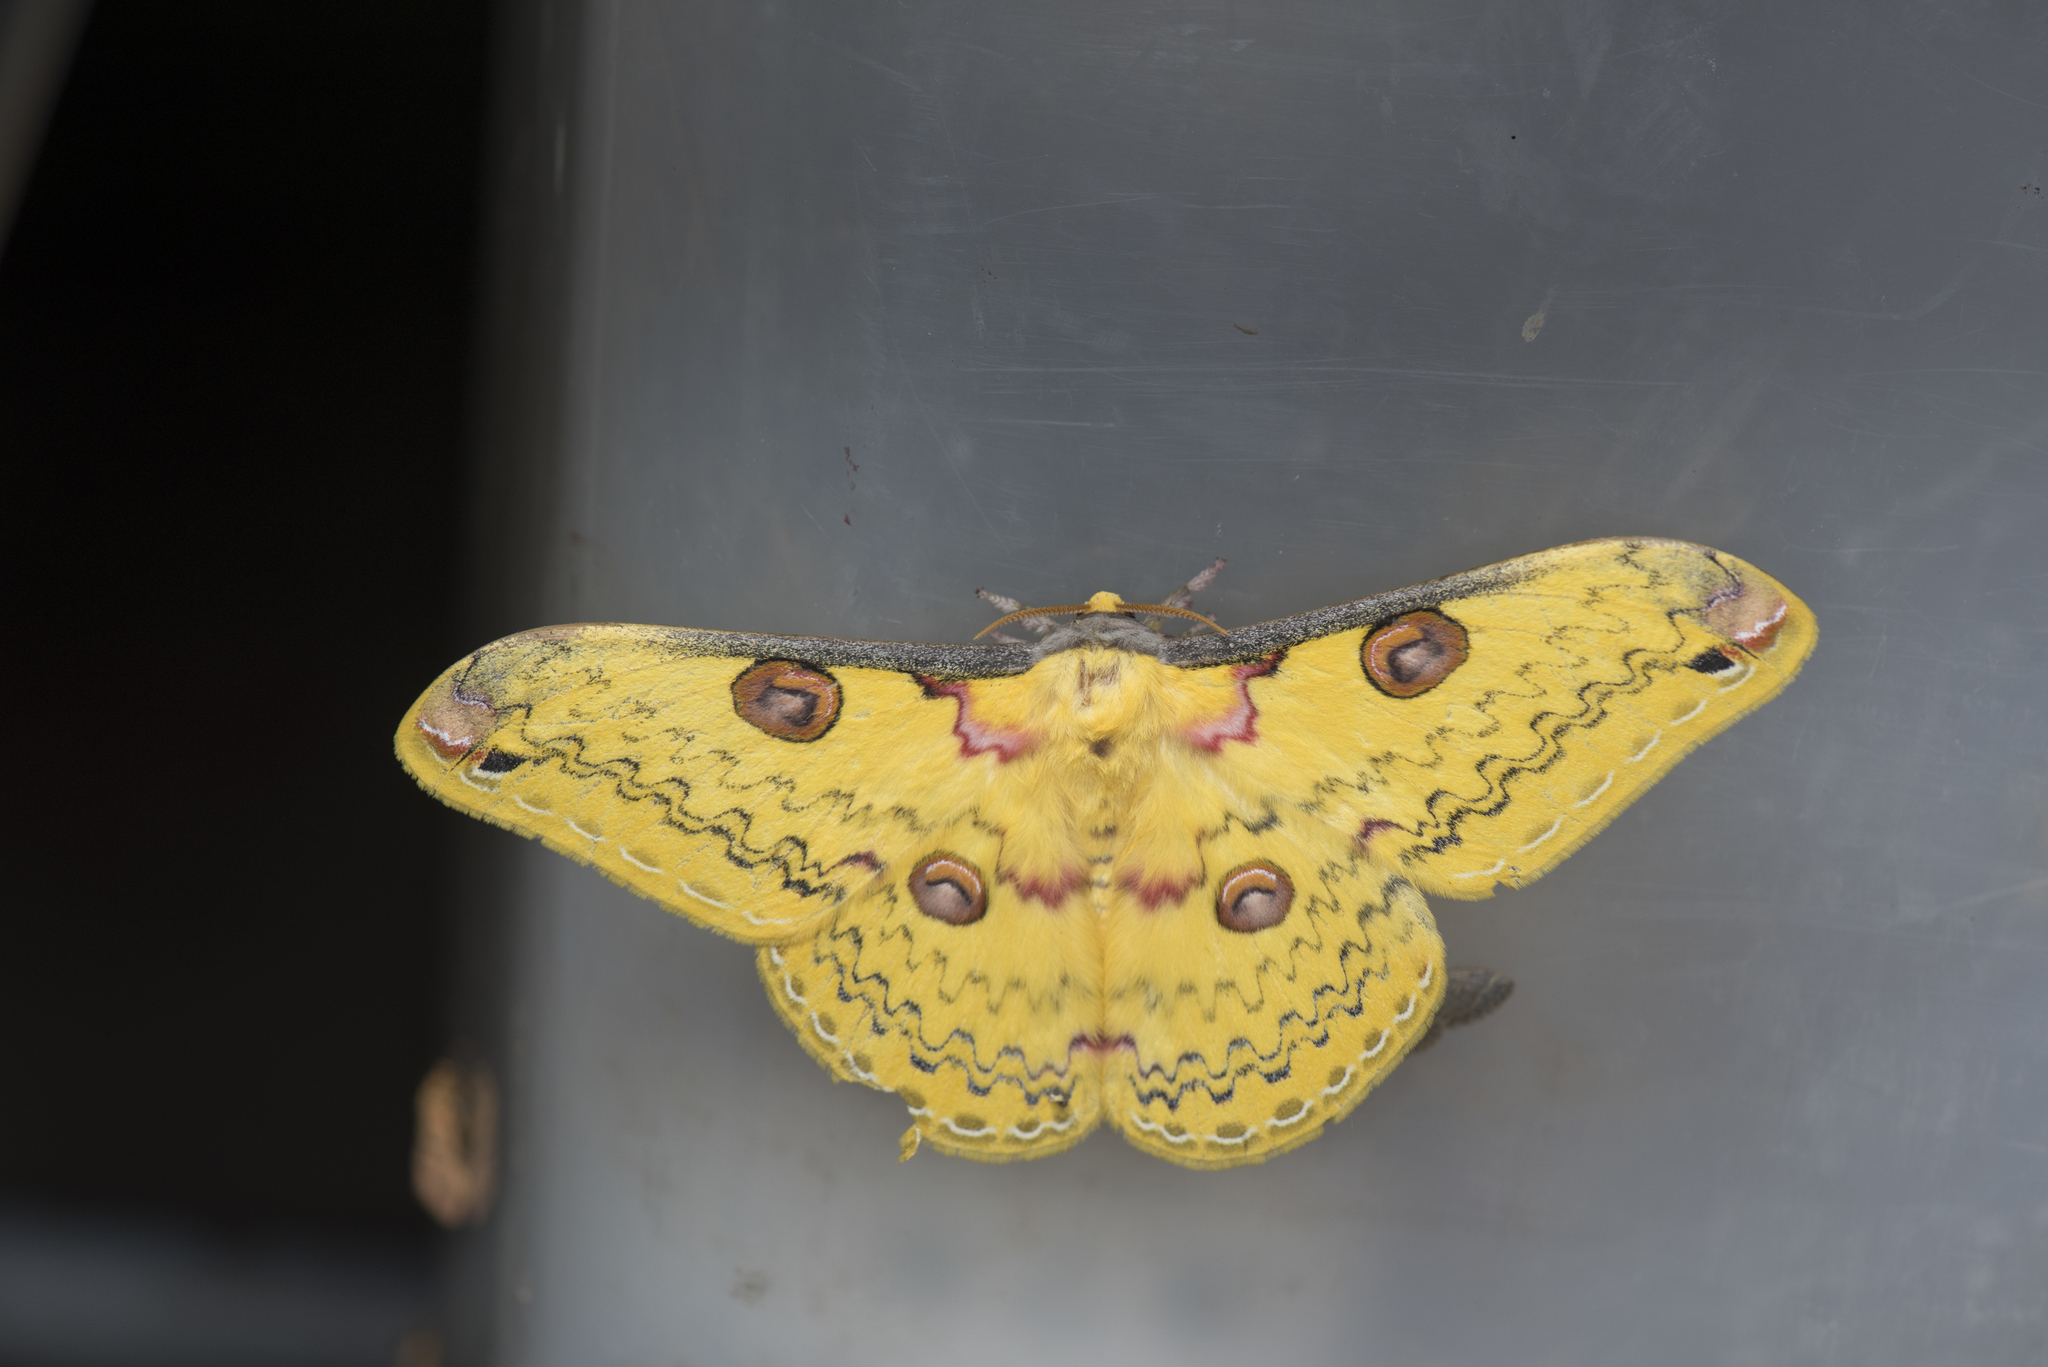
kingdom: Animalia
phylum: Arthropoda
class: Insecta
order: Lepidoptera
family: Saturniidae
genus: Loepa
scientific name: Loepa formosensis
